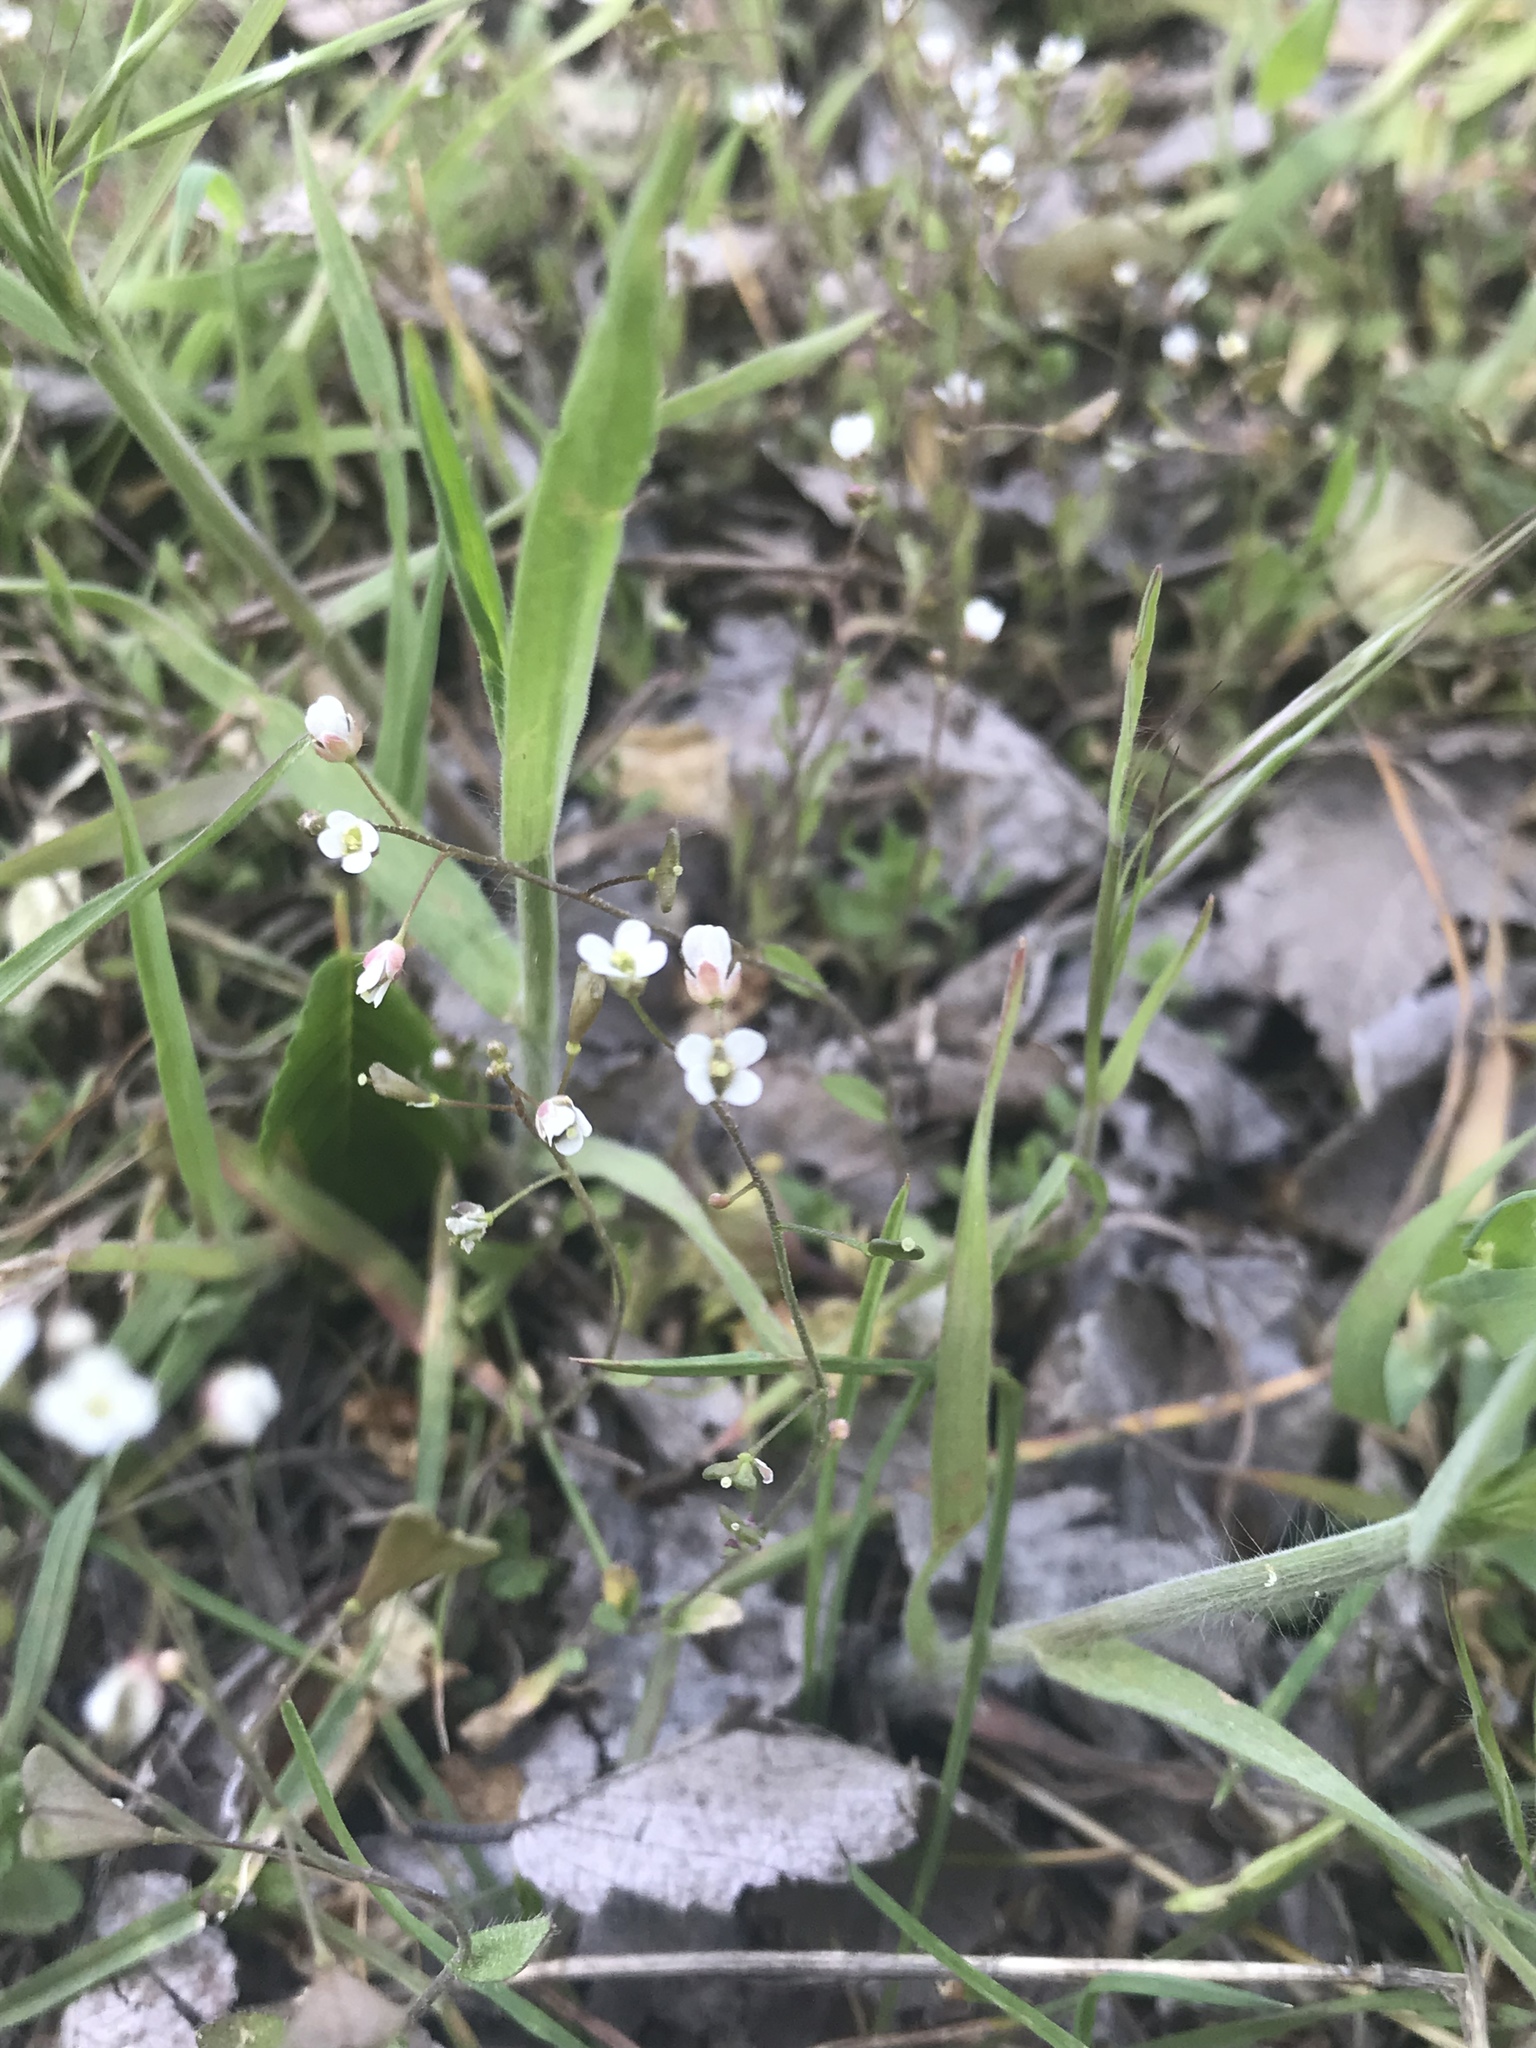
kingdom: Plantae
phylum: Tracheophyta
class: Magnoliopsida
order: Brassicales
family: Brassicaceae
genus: Capsella
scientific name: Capsella bursa-pastoris
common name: Shepherd's purse
